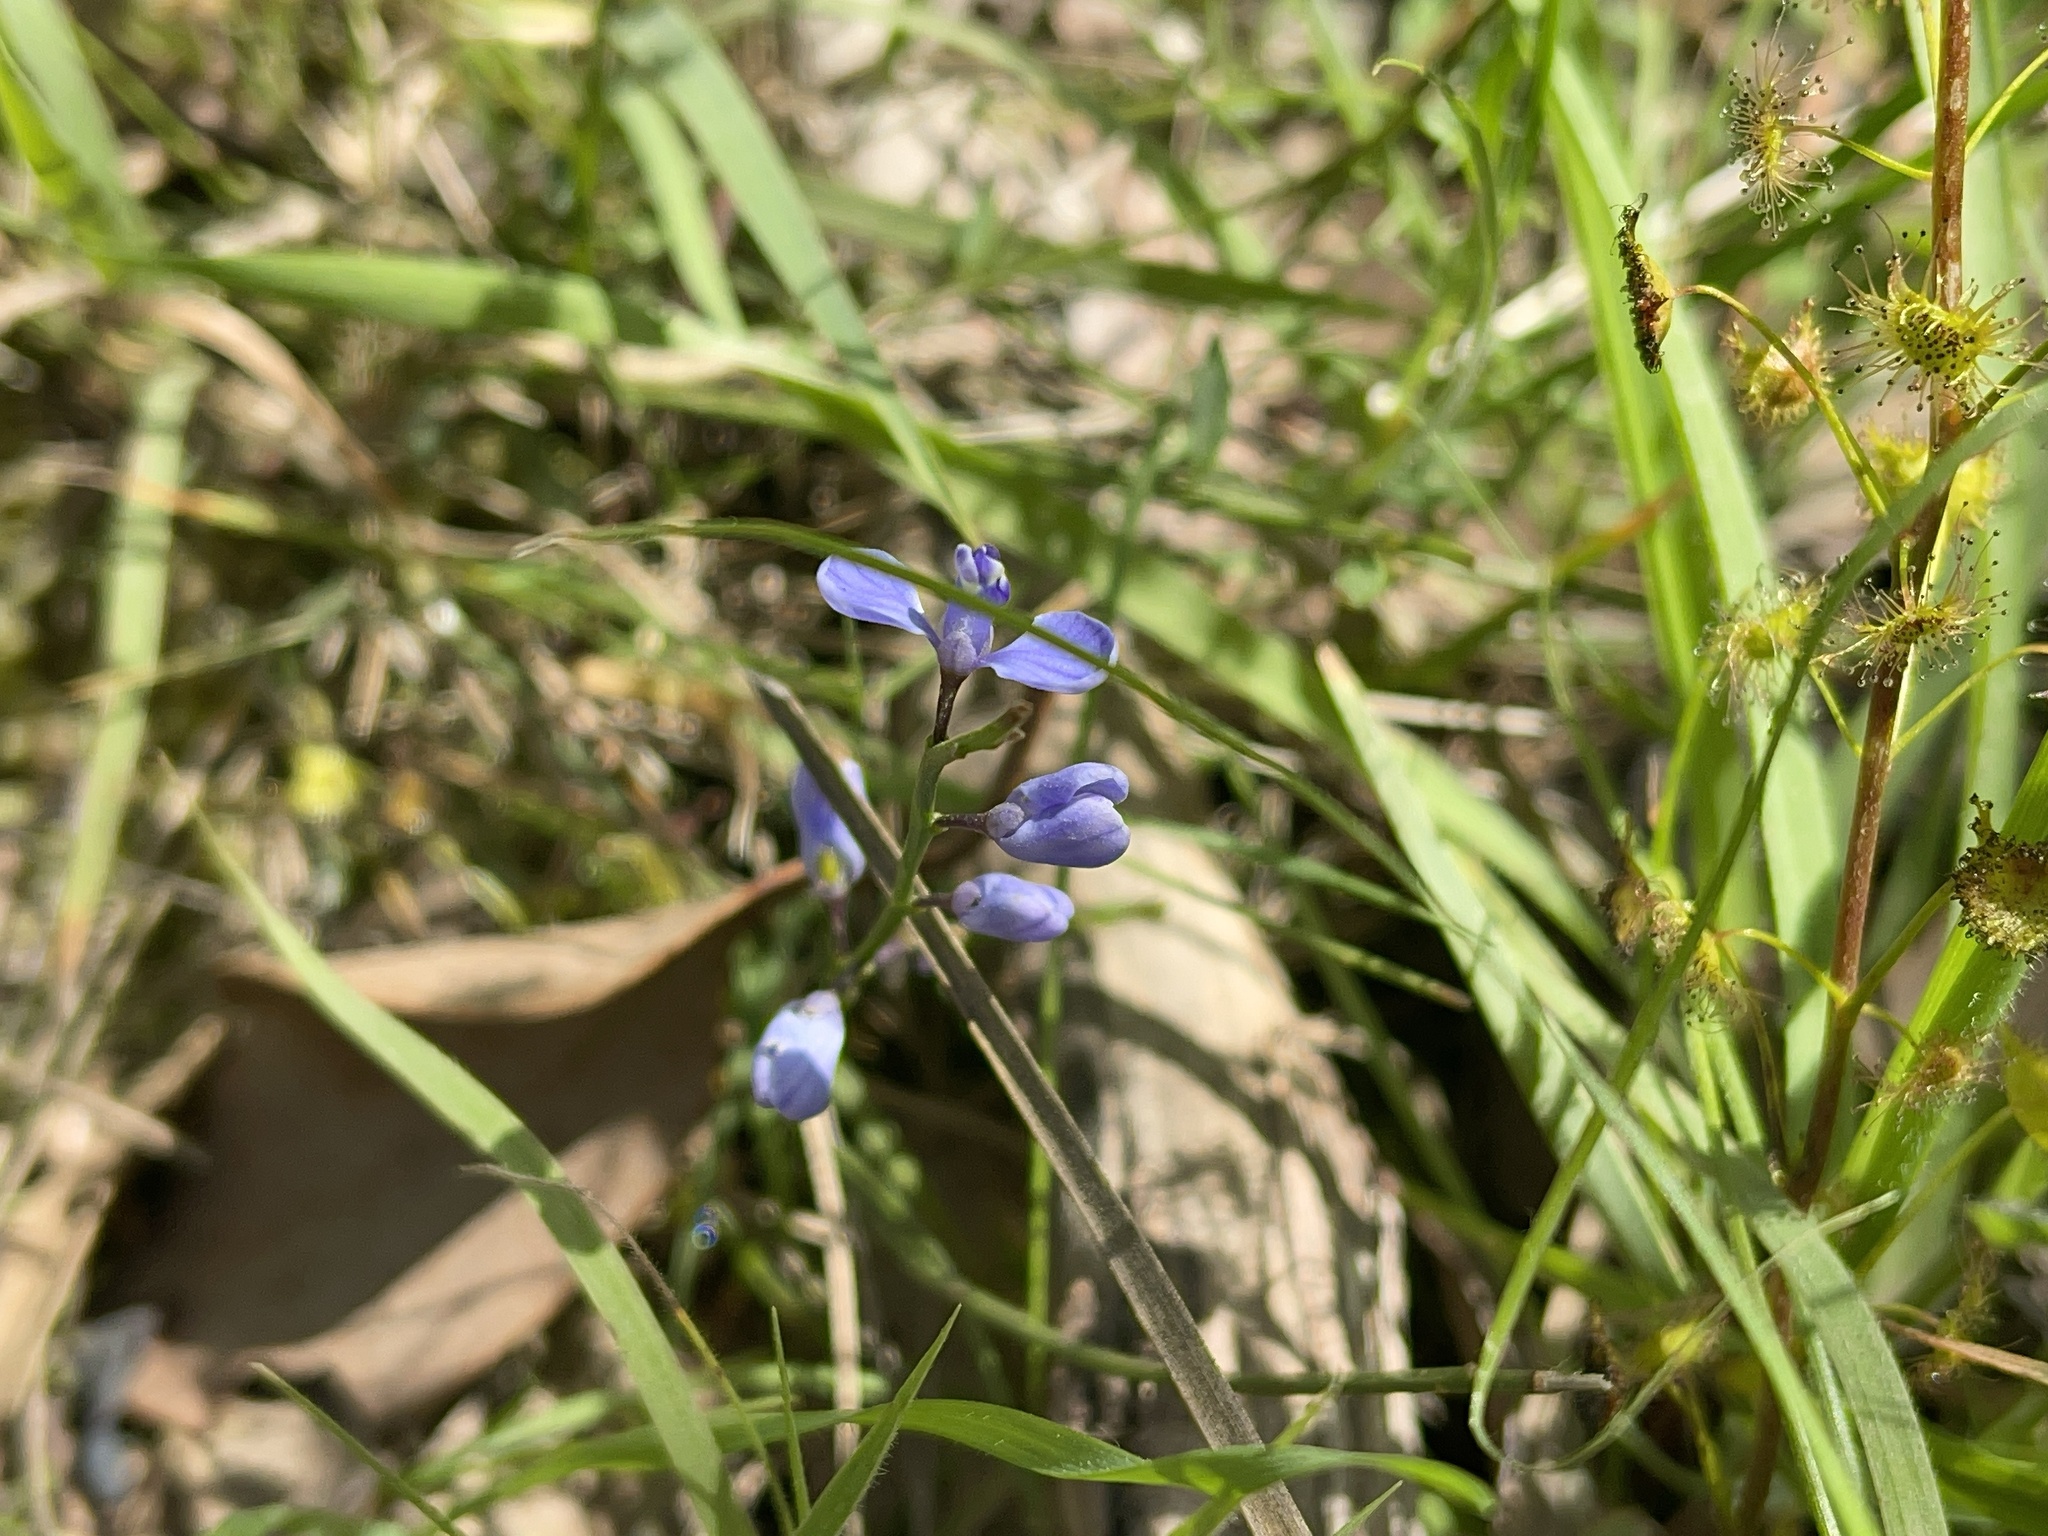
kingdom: Plantae
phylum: Tracheophyta
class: Magnoliopsida
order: Fabales
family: Polygalaceae
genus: Comesperma
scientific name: Comesperma volubile
